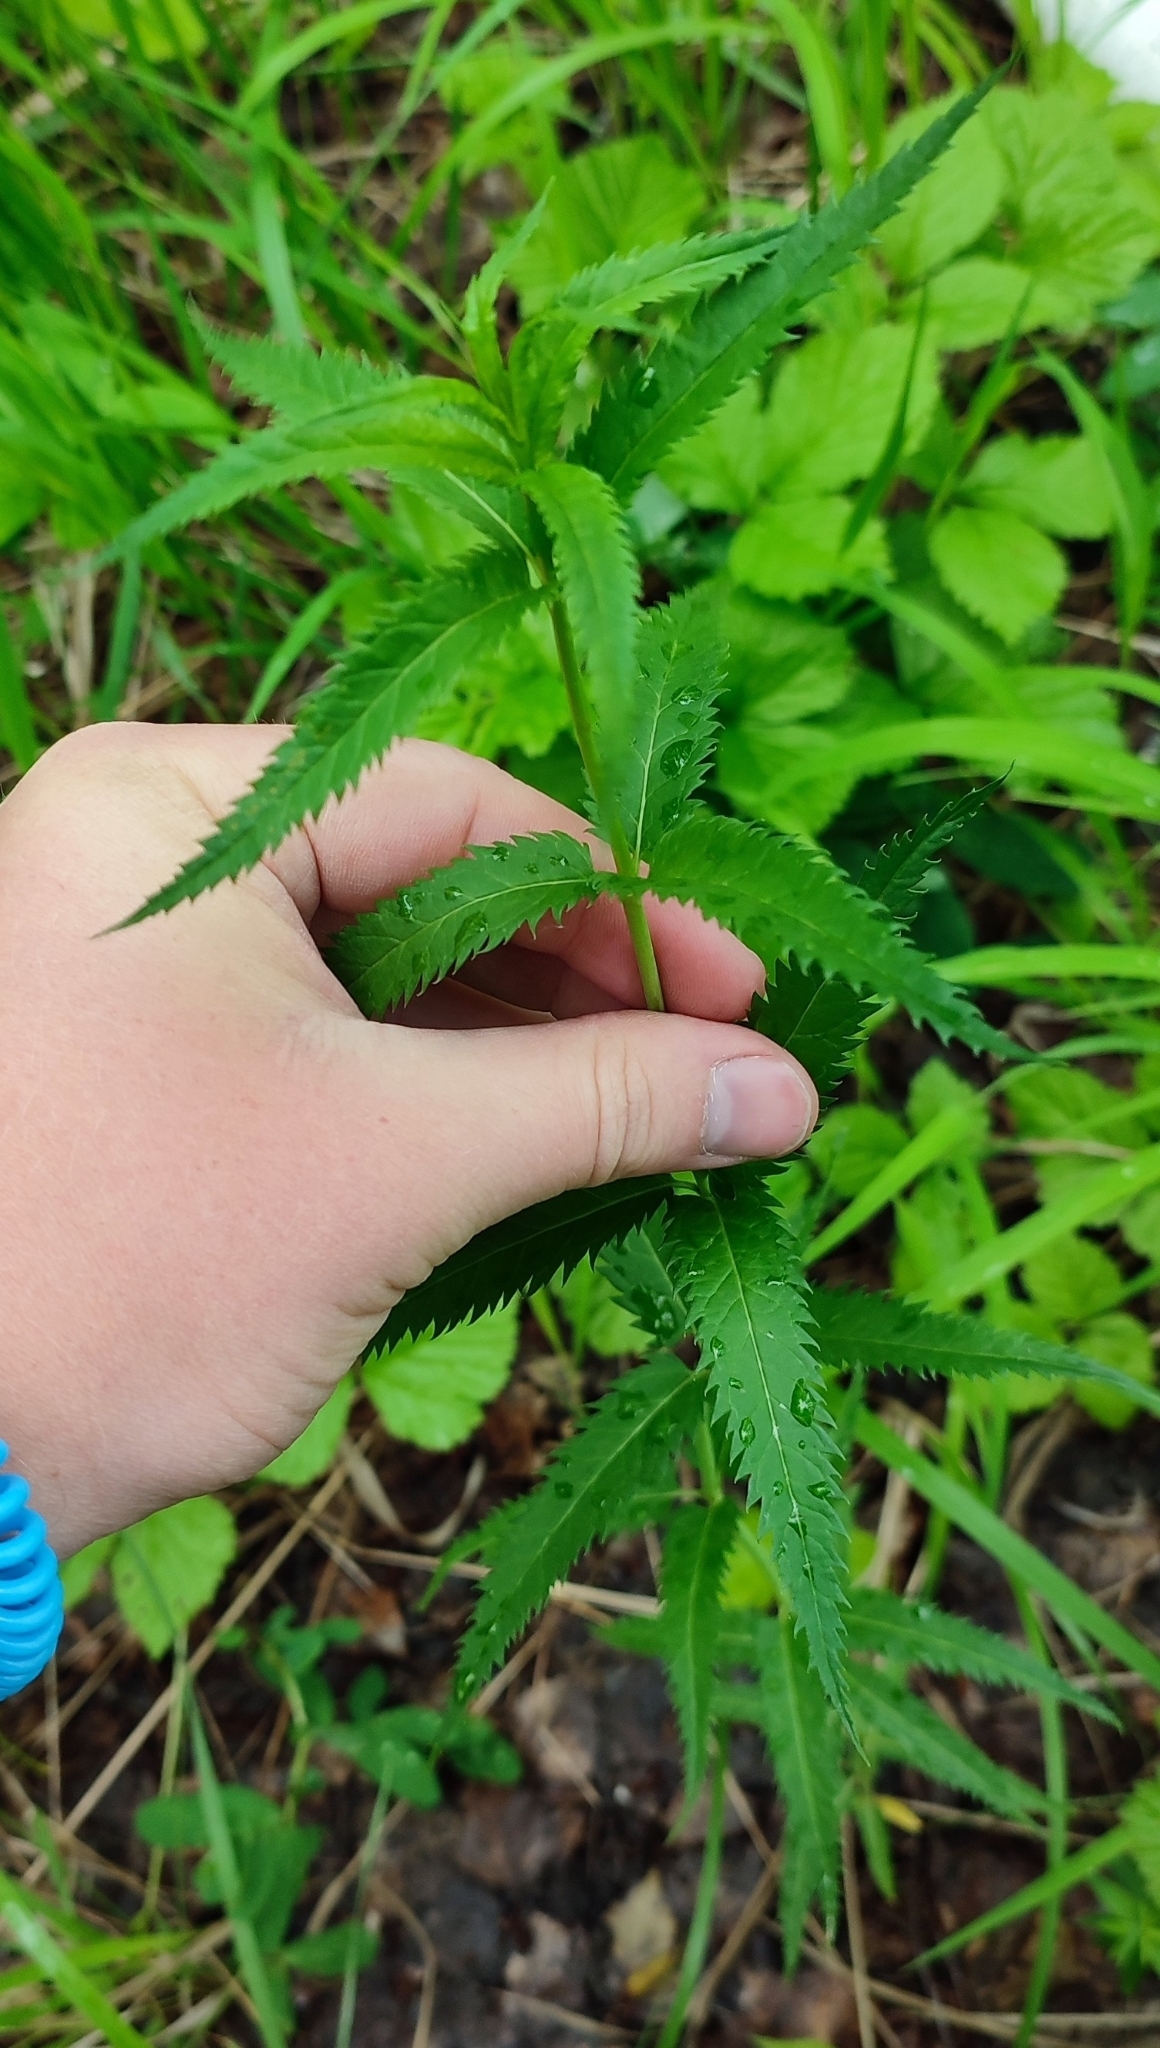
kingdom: Plantae
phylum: Tracheophyta
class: Magnoliopsida
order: Lamiales
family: Plantaginaceae
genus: Veronica
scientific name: Veronica longifolia
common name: Garden speedwell
